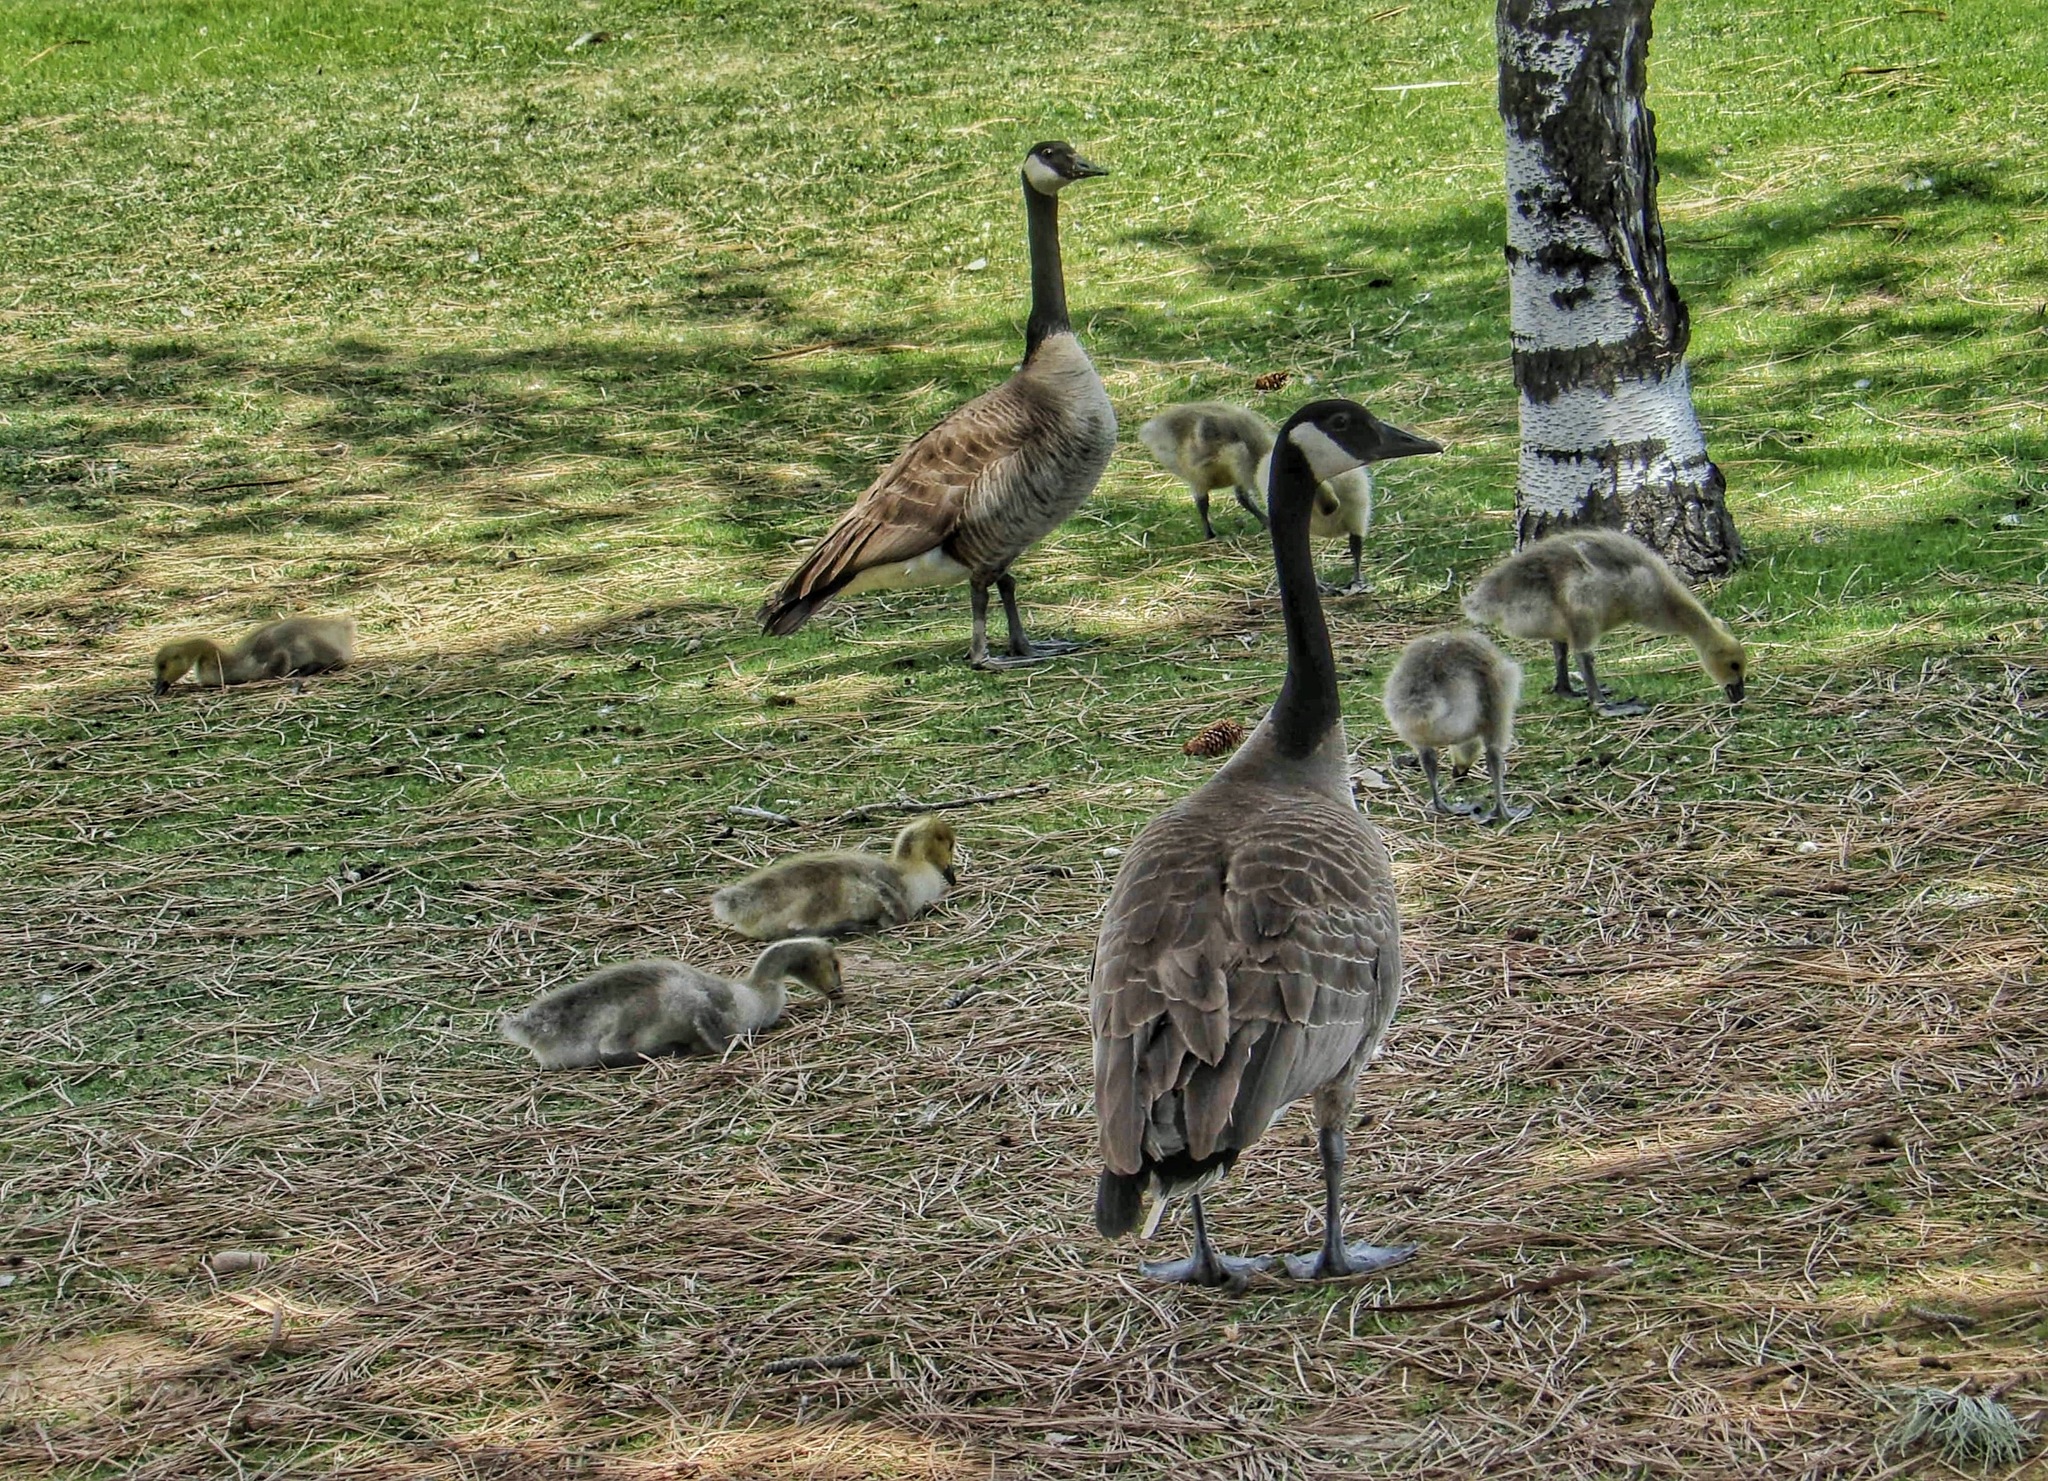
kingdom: Animalia
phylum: Chordata
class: Aves
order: Anseriformes
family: Anatidae
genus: Branta
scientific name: Branta canadensis
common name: Canada goose
